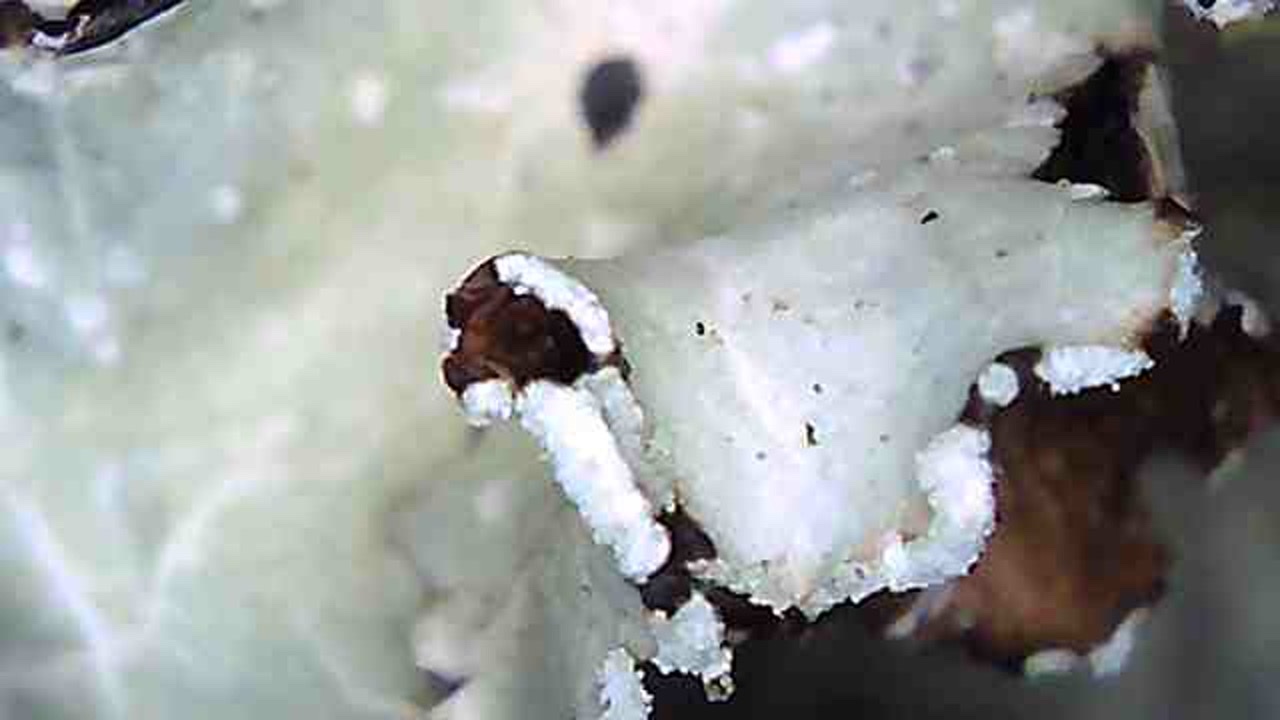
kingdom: Fungi
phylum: Ascomycota
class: Lecanoromycetes
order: Lecanorales
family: Parmeliaceae
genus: Cetrelia
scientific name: Cetrelia cetrarioides
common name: Speckled iceland lichen
